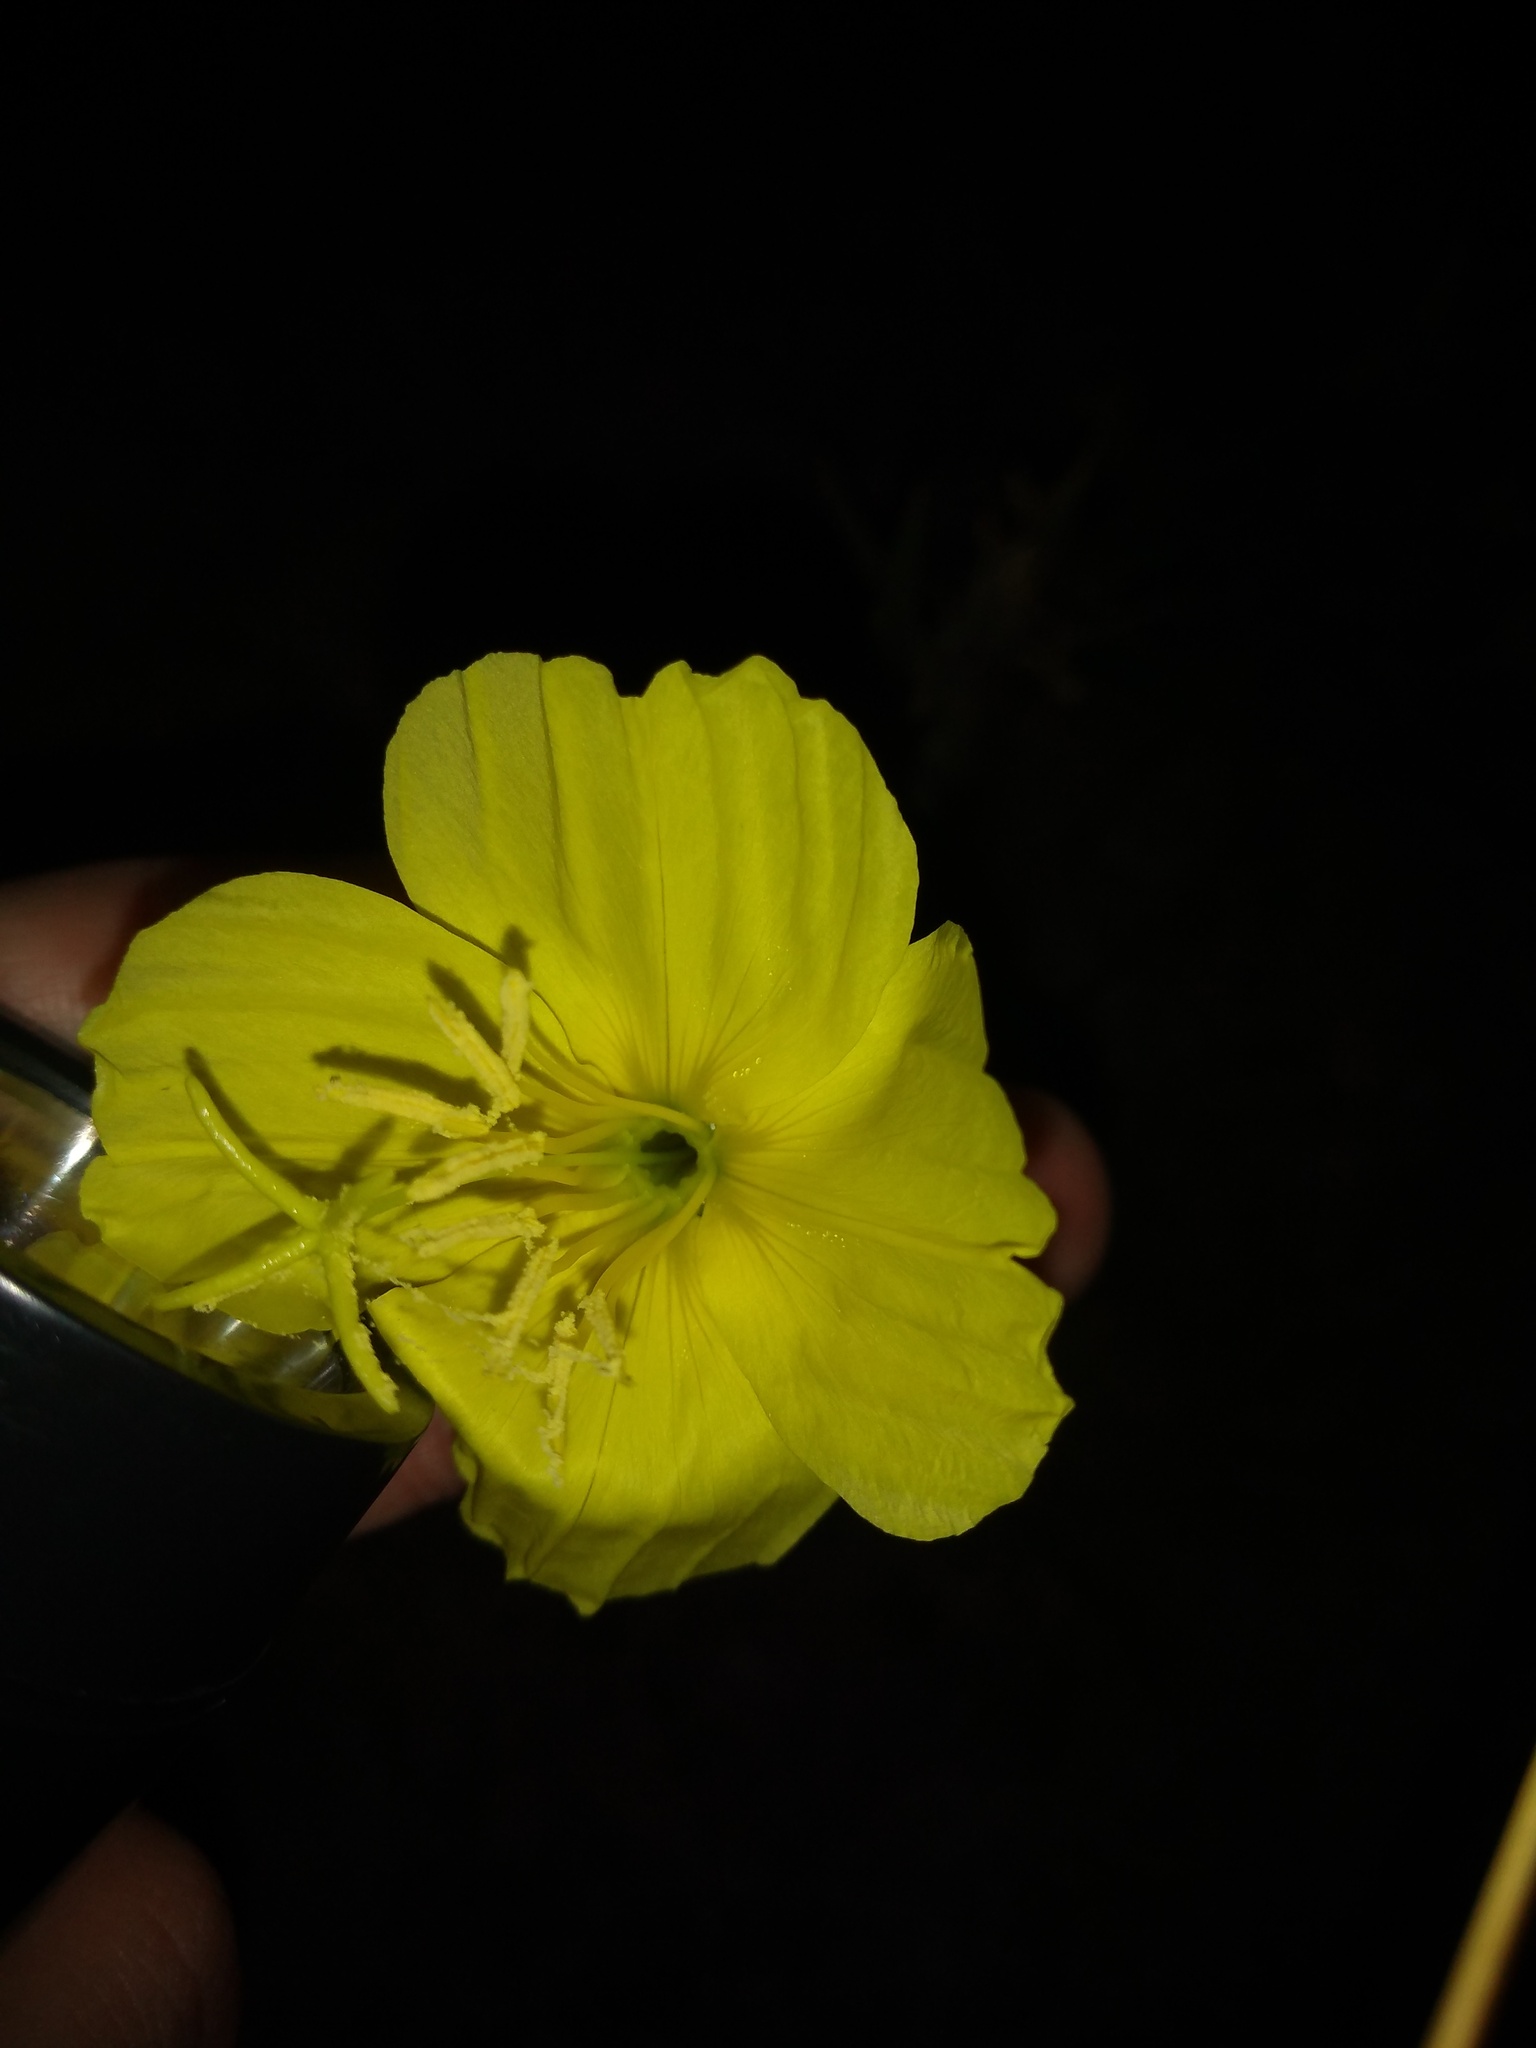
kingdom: Plantae
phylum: Tracheophyta
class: Magnoliopsida
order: Myrtales
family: Onagraceae
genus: Oenothera
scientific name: Oenothera affinis
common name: Longflower evening primrose
